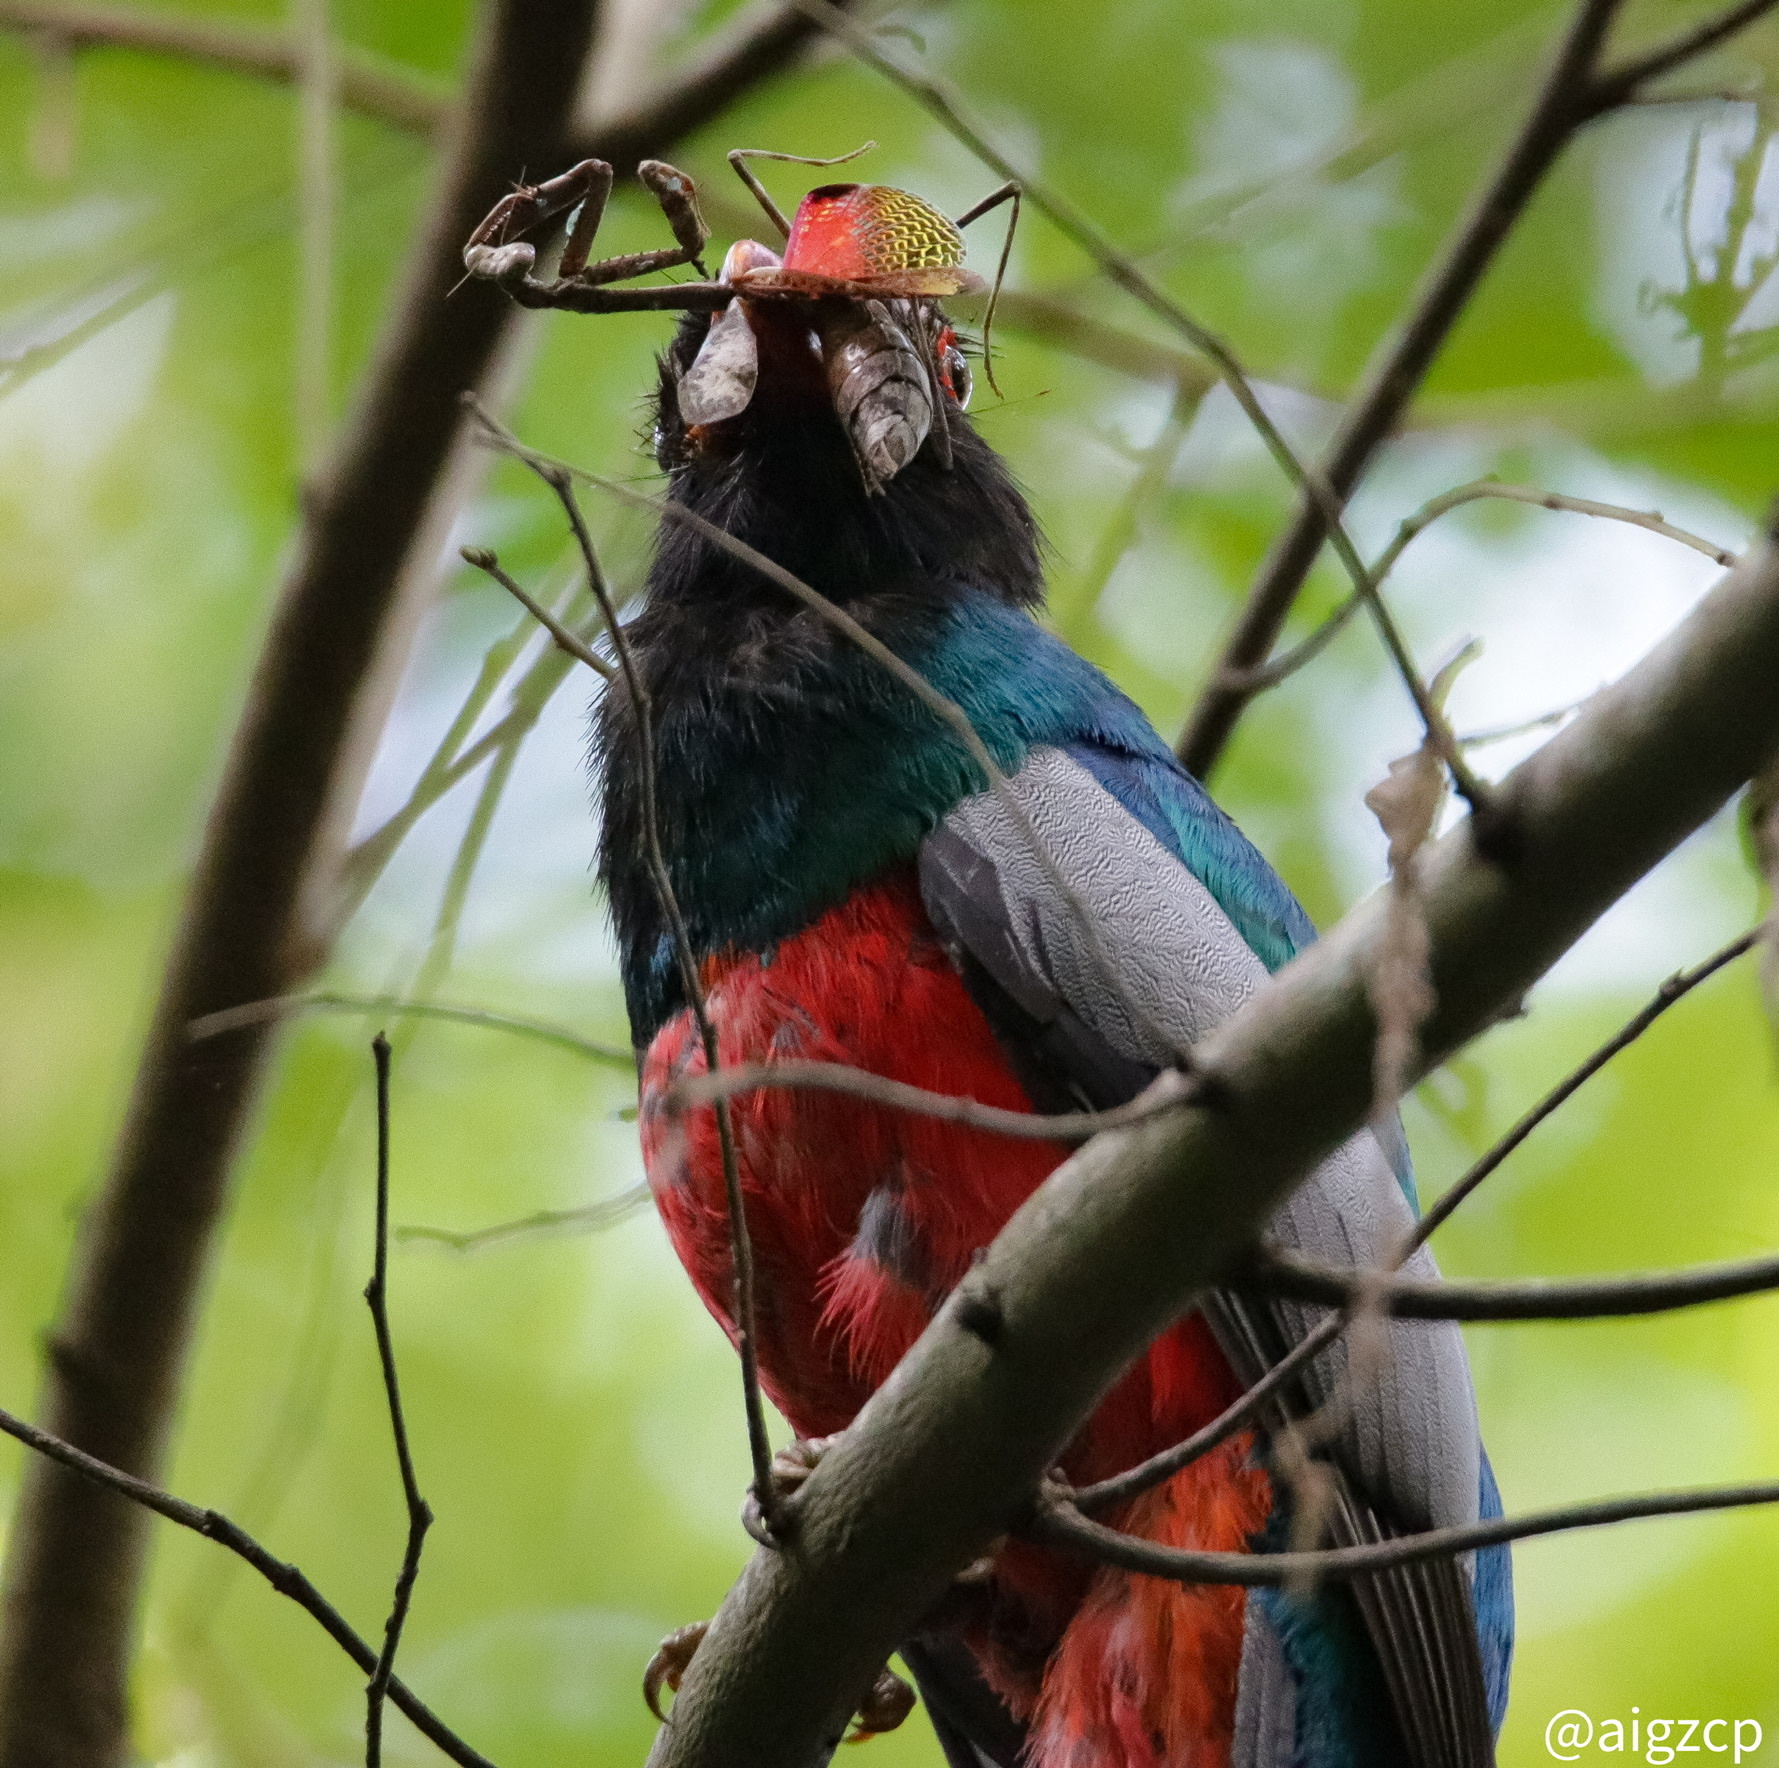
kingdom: Animalia
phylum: Chordata
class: Aves
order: Trogoniformes
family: Trogonidae
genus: Trogon
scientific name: Trogon massena
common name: Slaty-tailed trogon
